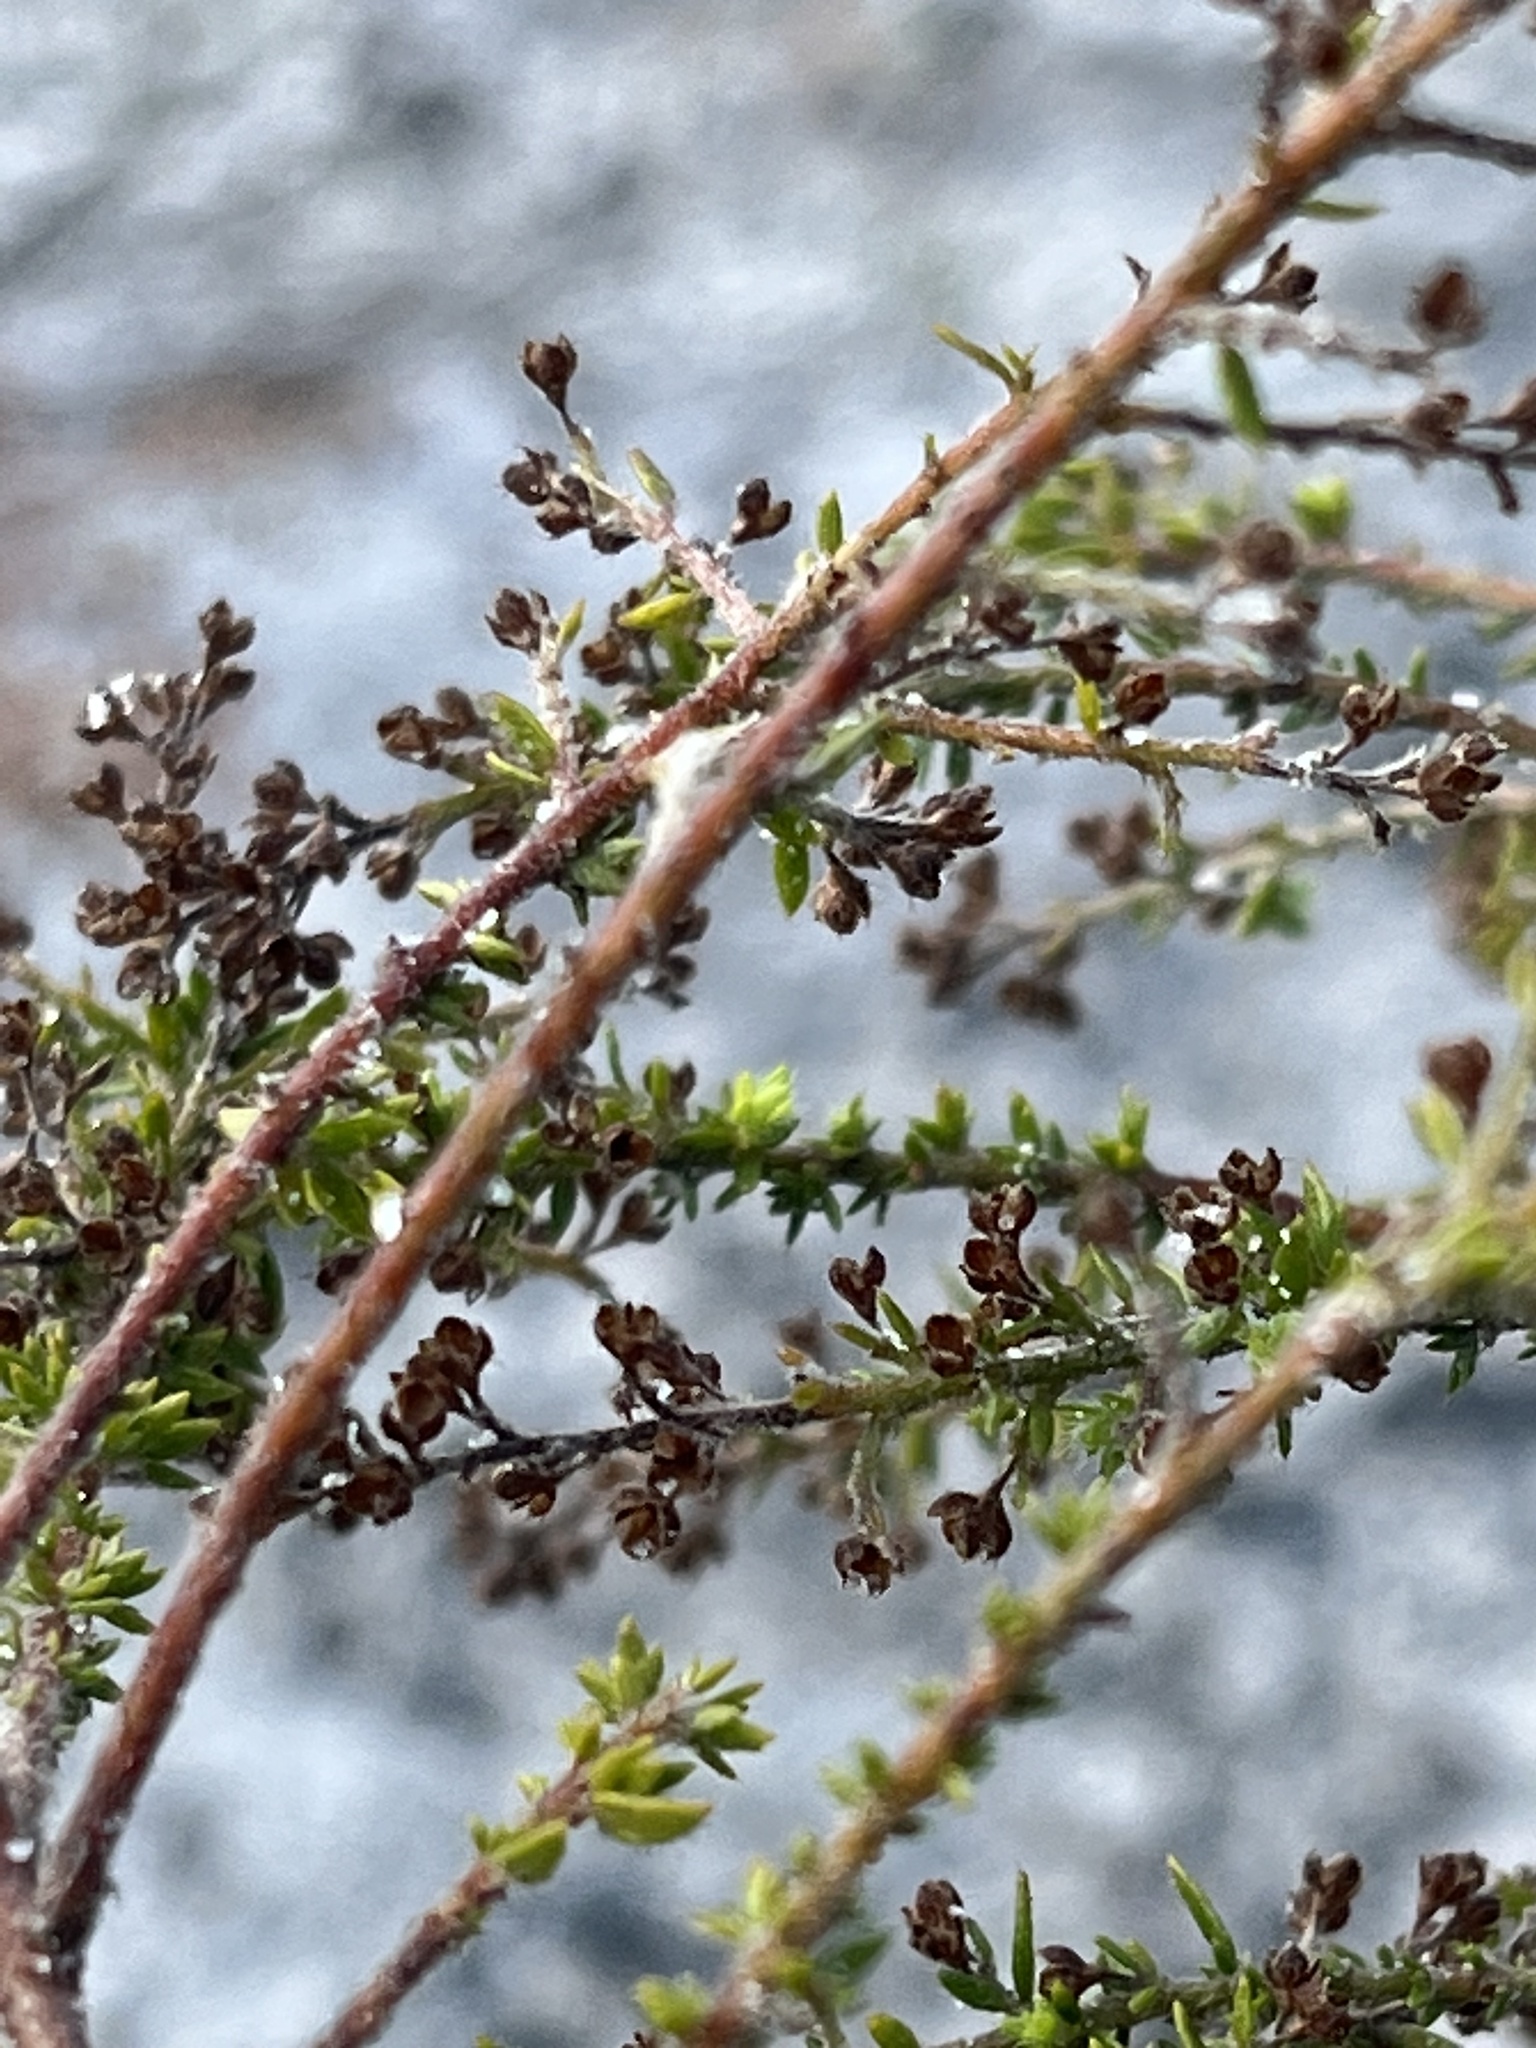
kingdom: Plantae
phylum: Tracheophyta
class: Magnoliopsida
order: Malvales
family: Cistaceae
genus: Lechea
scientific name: Lechea divaricata
